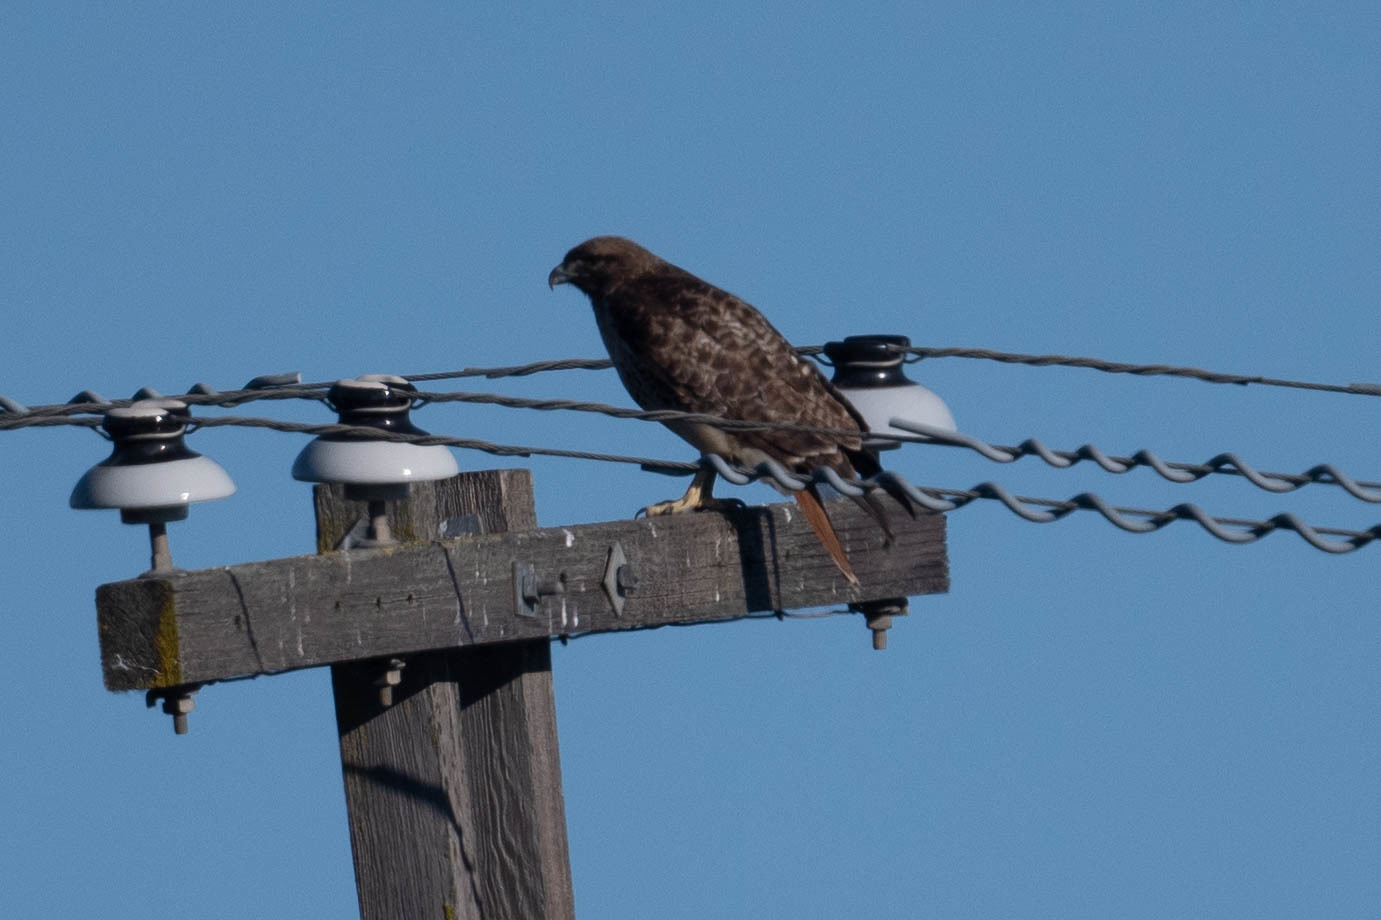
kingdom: Animalia
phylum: Chordata
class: Aves
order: Accipitriformes
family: Accipitridae
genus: Buteo
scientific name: Buteo jamaicensis
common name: Red-tailed hawk
